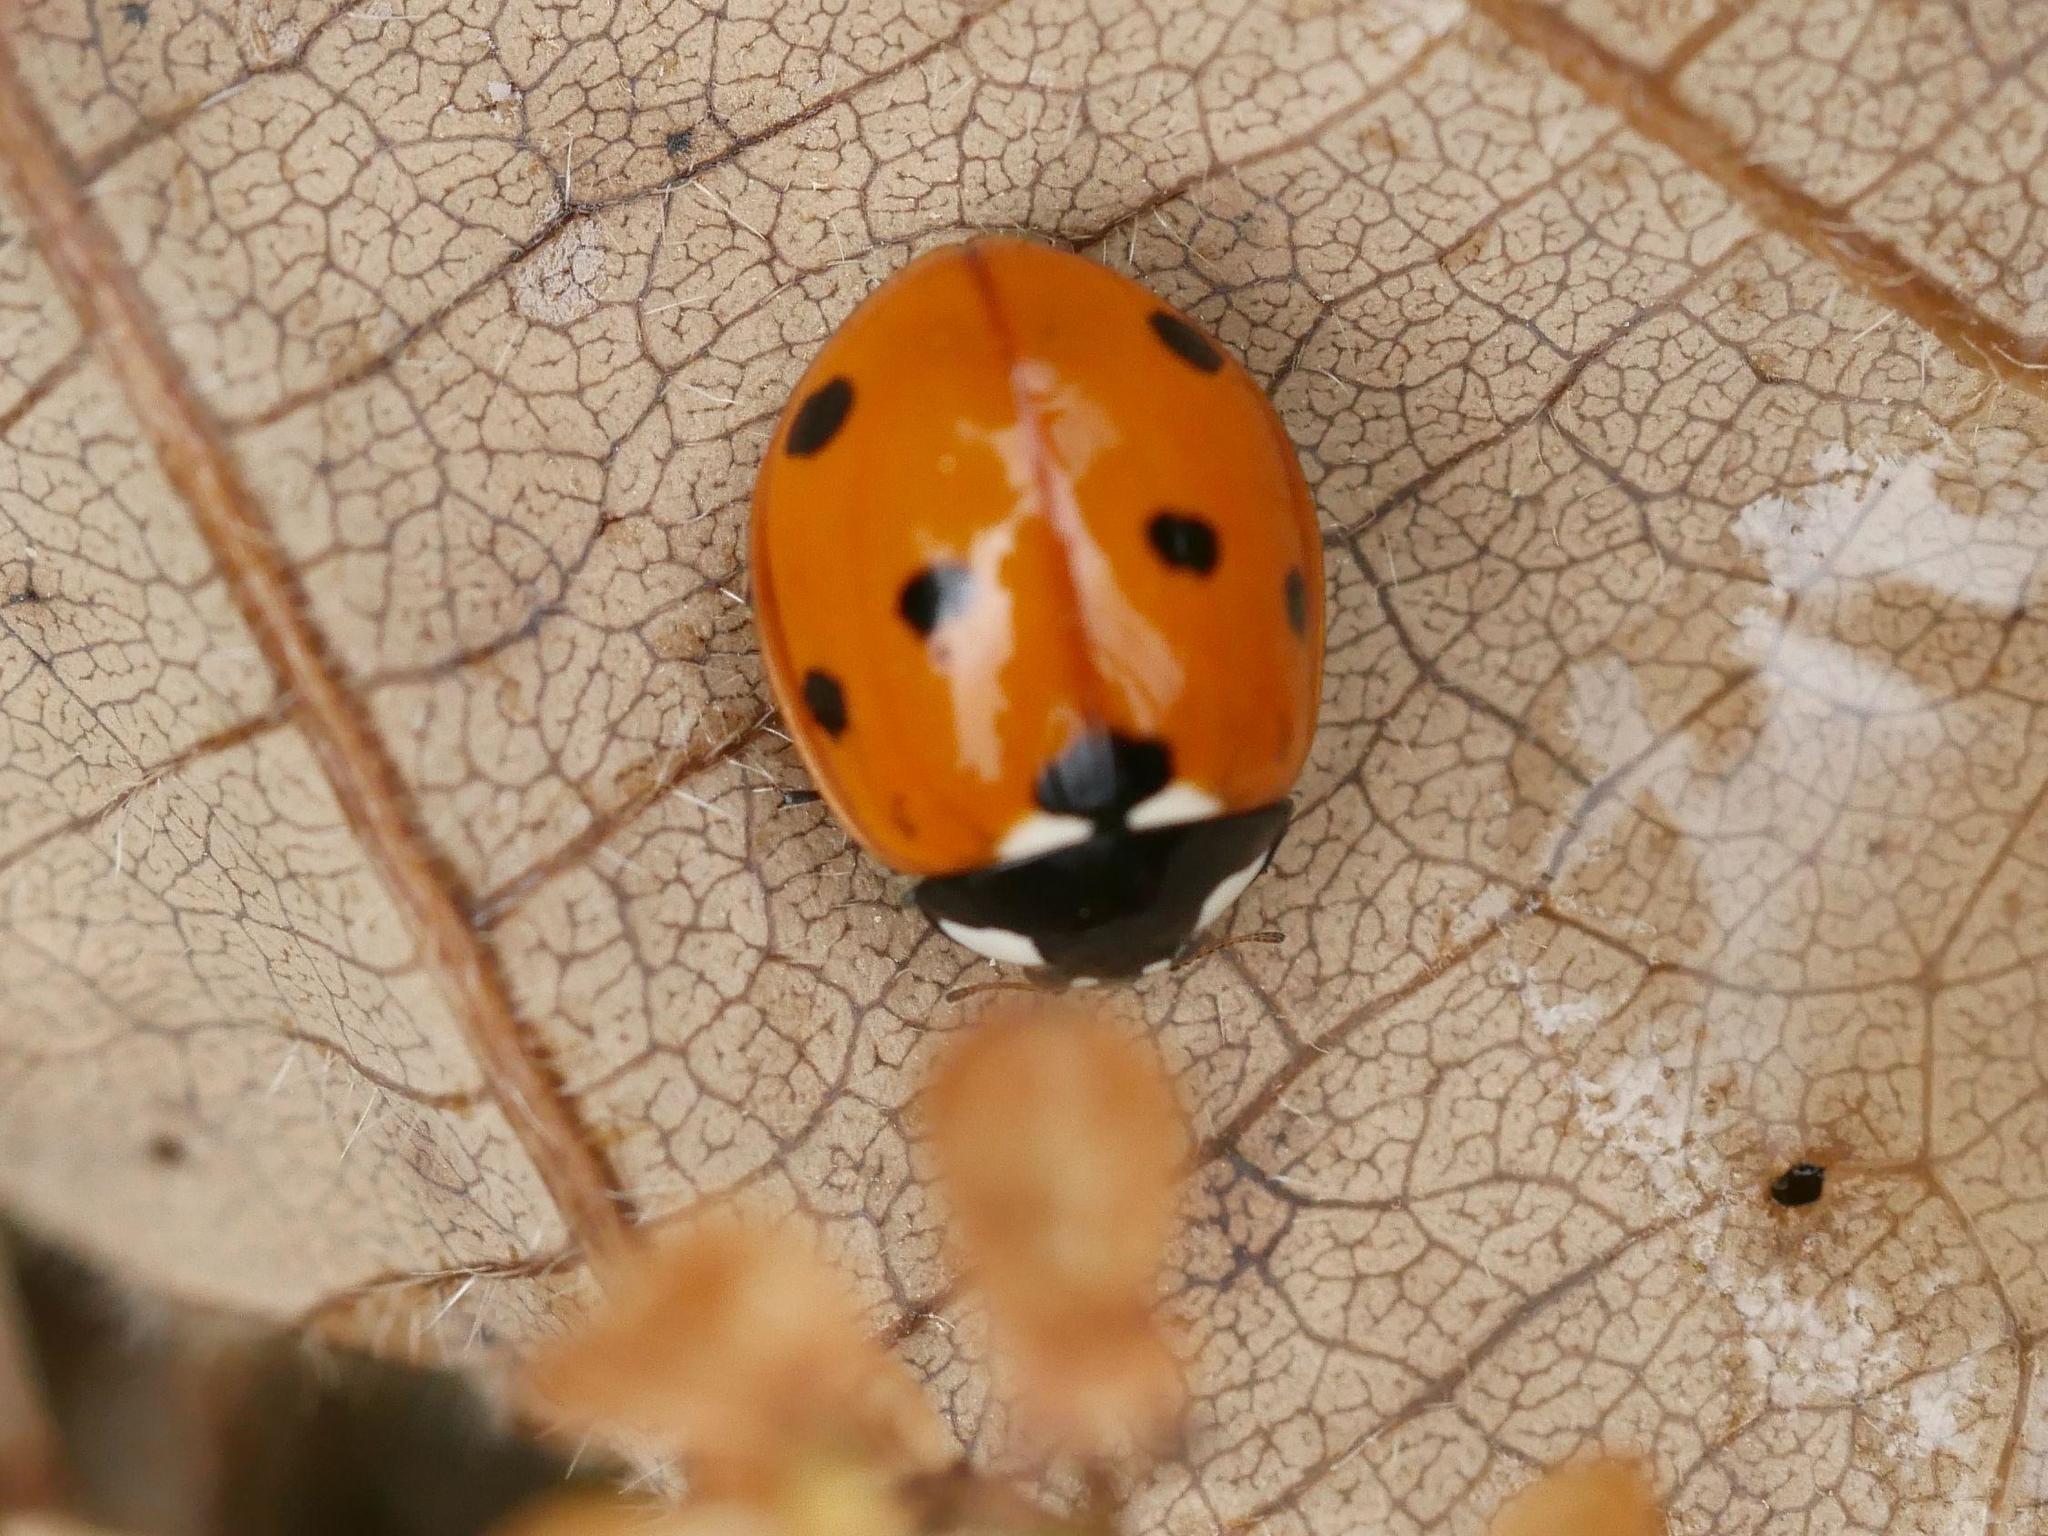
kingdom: Animalia
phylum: Arthropoda
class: Insecta
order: Coleoptera
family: Coccinellidae
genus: Coccinella
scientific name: Coccinella septempunctata
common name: Sevenspotted lady beetle
